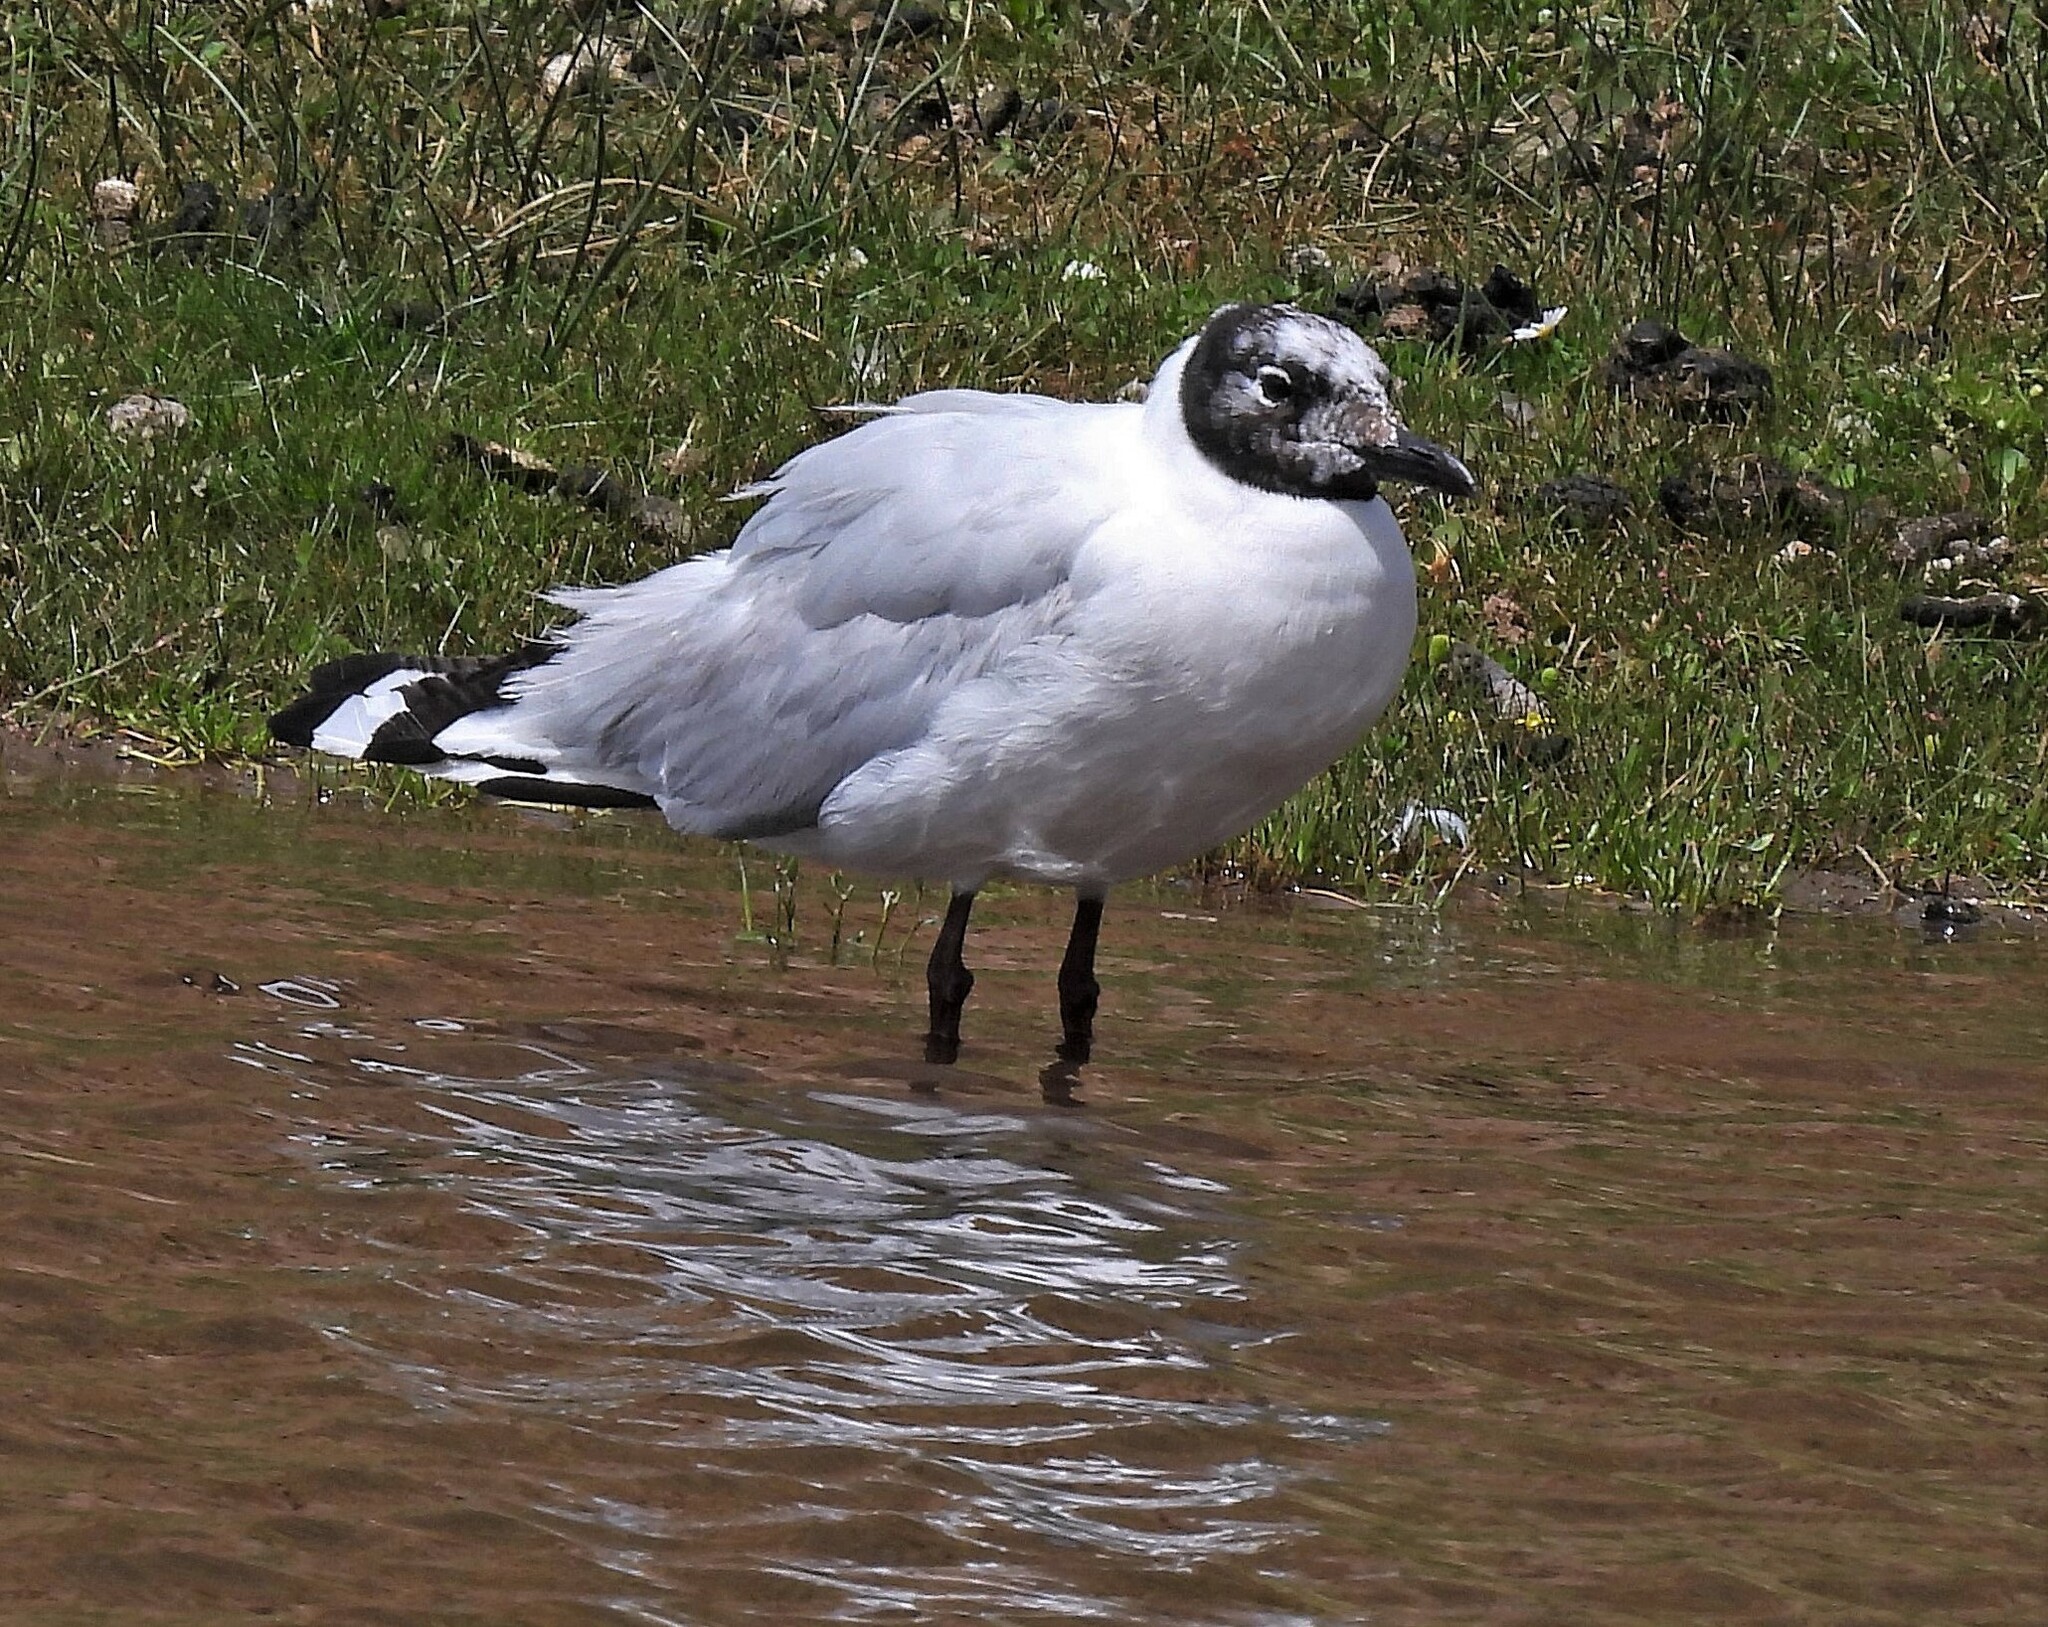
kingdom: Animalia
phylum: Chordata
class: Aves
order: Charadriiformes
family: Laridae
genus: Chroicocephalus
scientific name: Chroicocephalus serranus
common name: Andean gull
